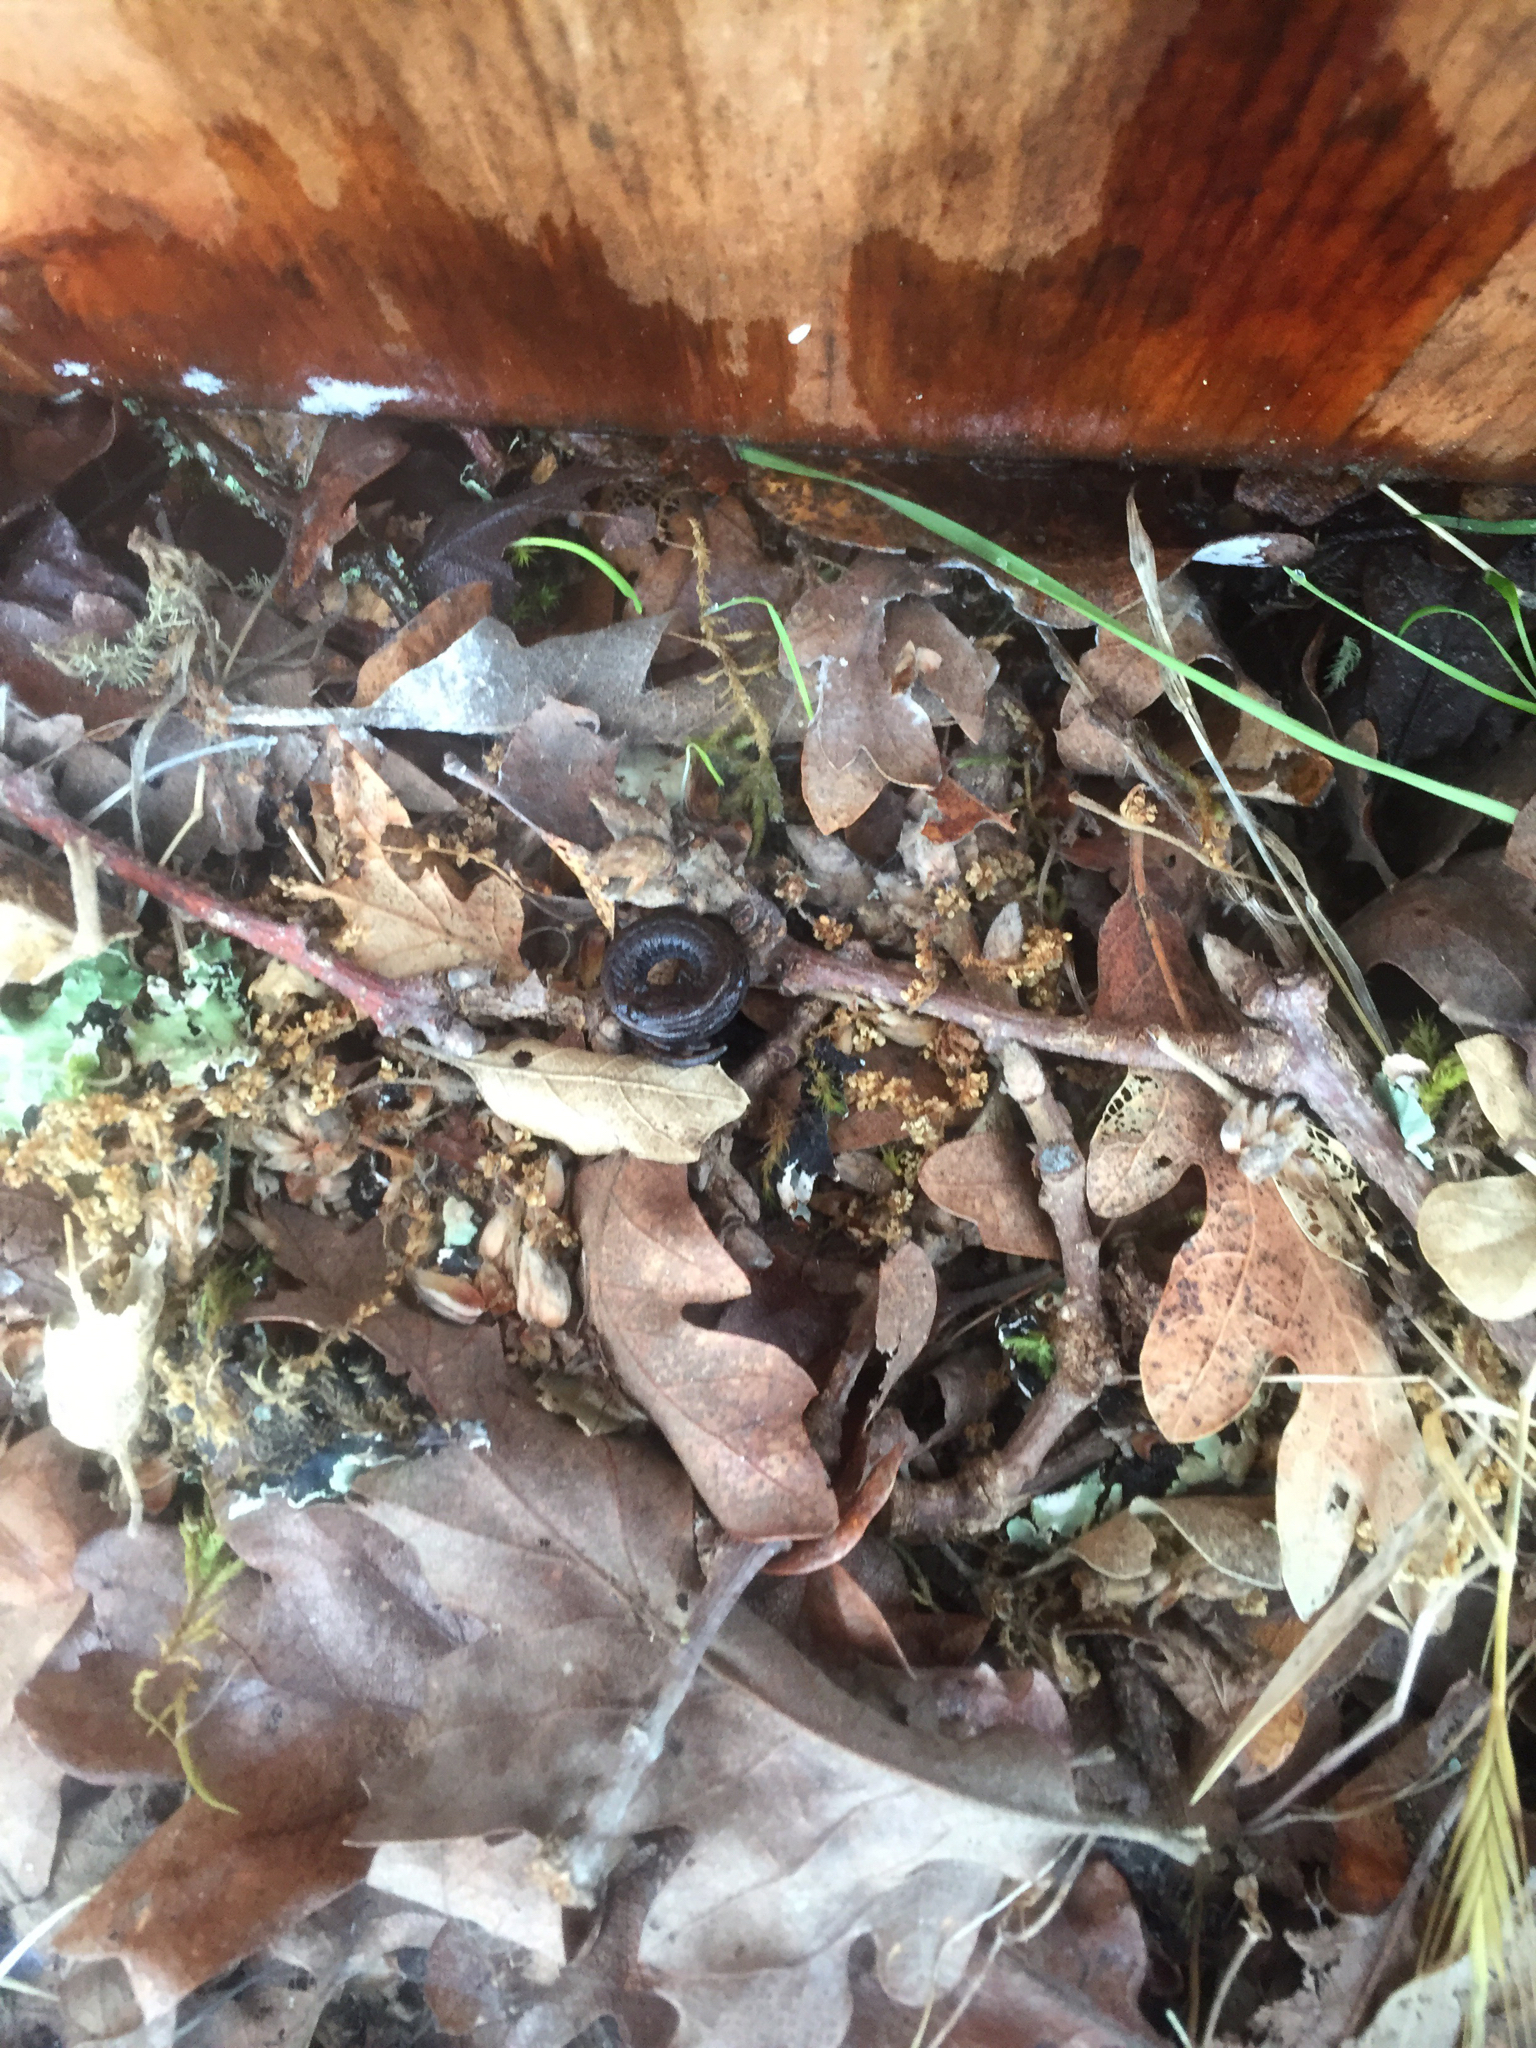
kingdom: Animalia
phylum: Chordata
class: Amphibia
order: Caudata
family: Plethodontidae
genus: Batrachoseps
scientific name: Batrachoseps attenuatus
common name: California slender salamander
